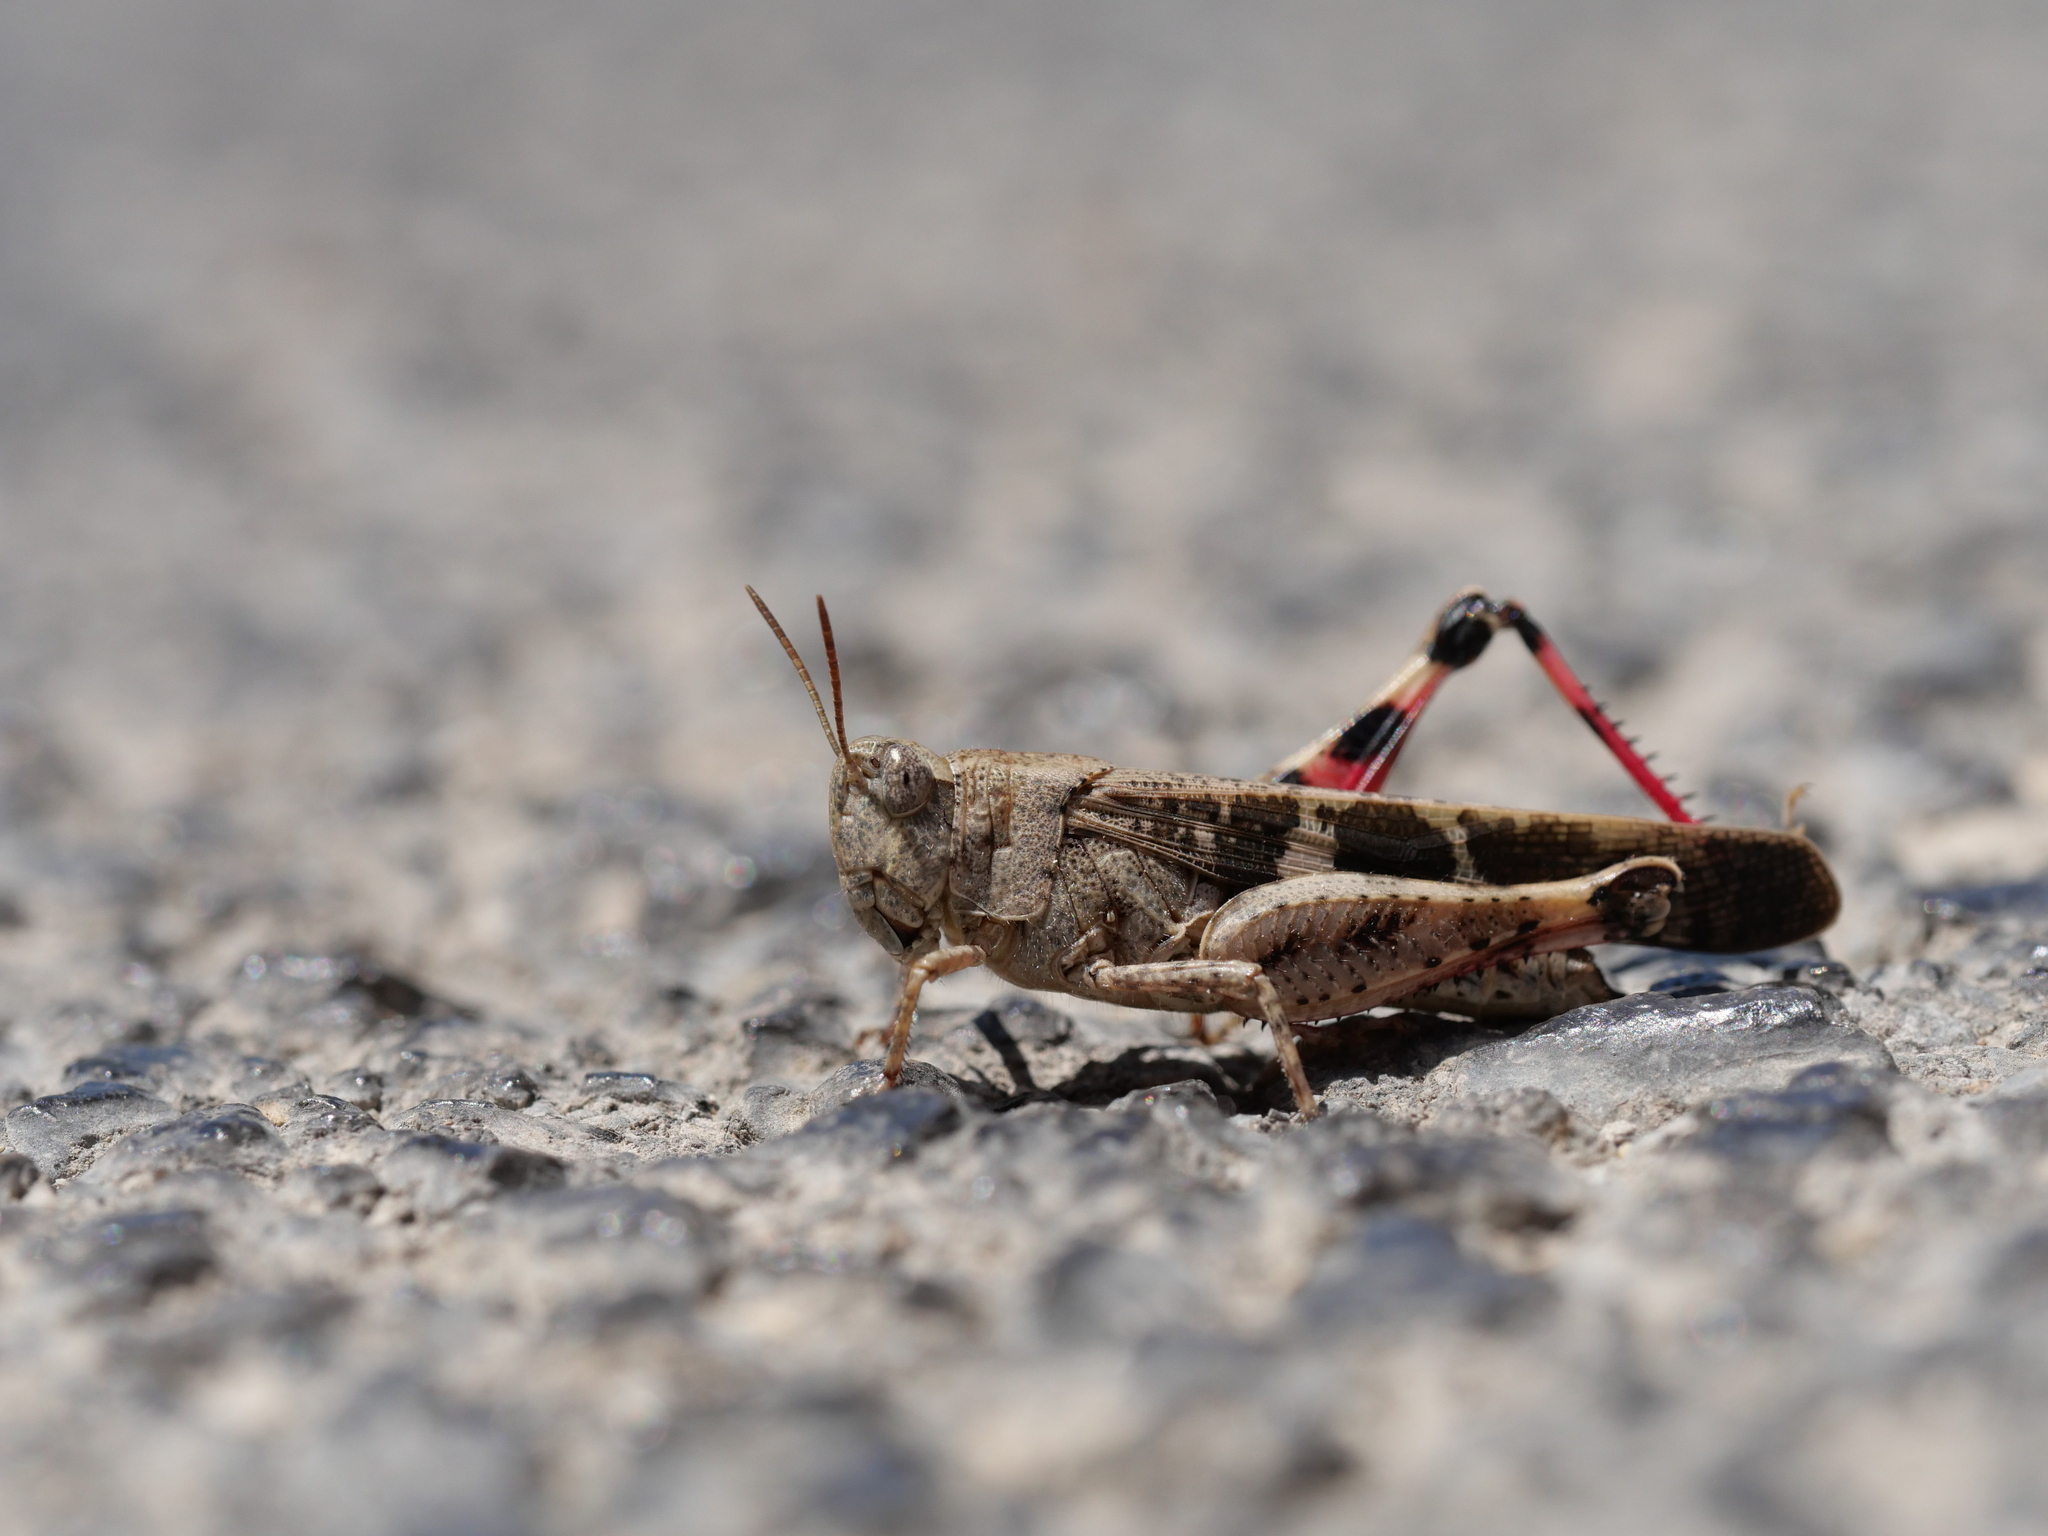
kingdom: Animalia
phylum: Arthropoda
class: Insecta
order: Orthoptera
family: Acrididae
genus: Aiolopus
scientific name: Aiolopus strepens
